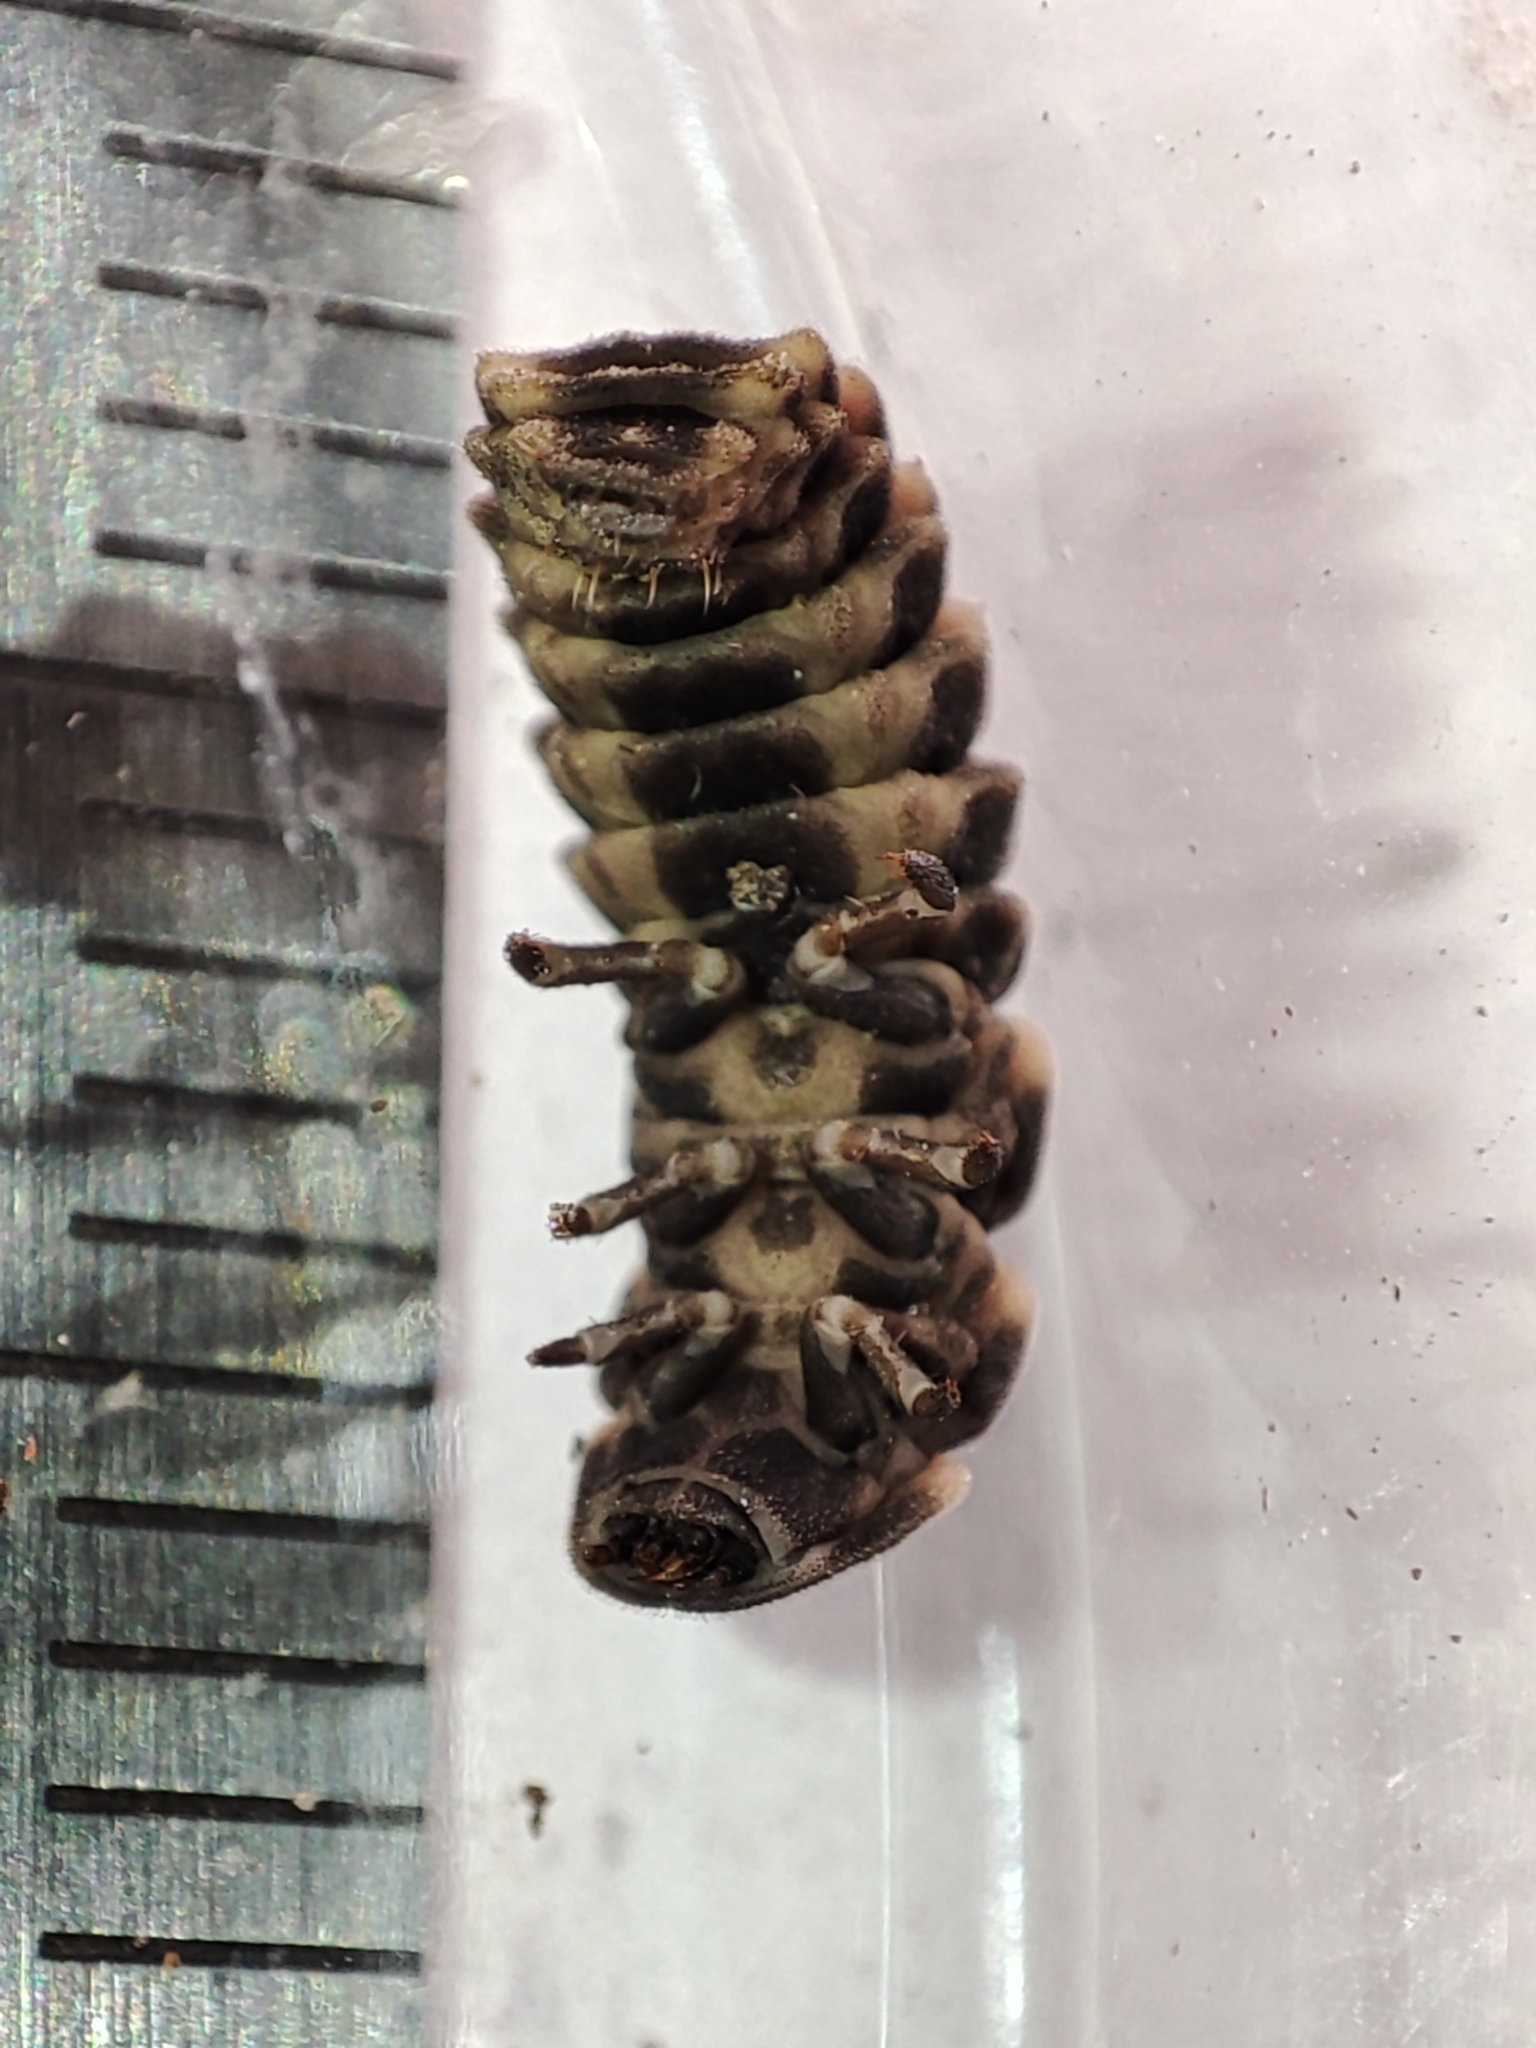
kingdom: Animalia
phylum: Arthropoda
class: Insecta
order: Coleoptera
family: Lampyridae
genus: Lampyris
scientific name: Lampyris noctiluca
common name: Glow-worm
